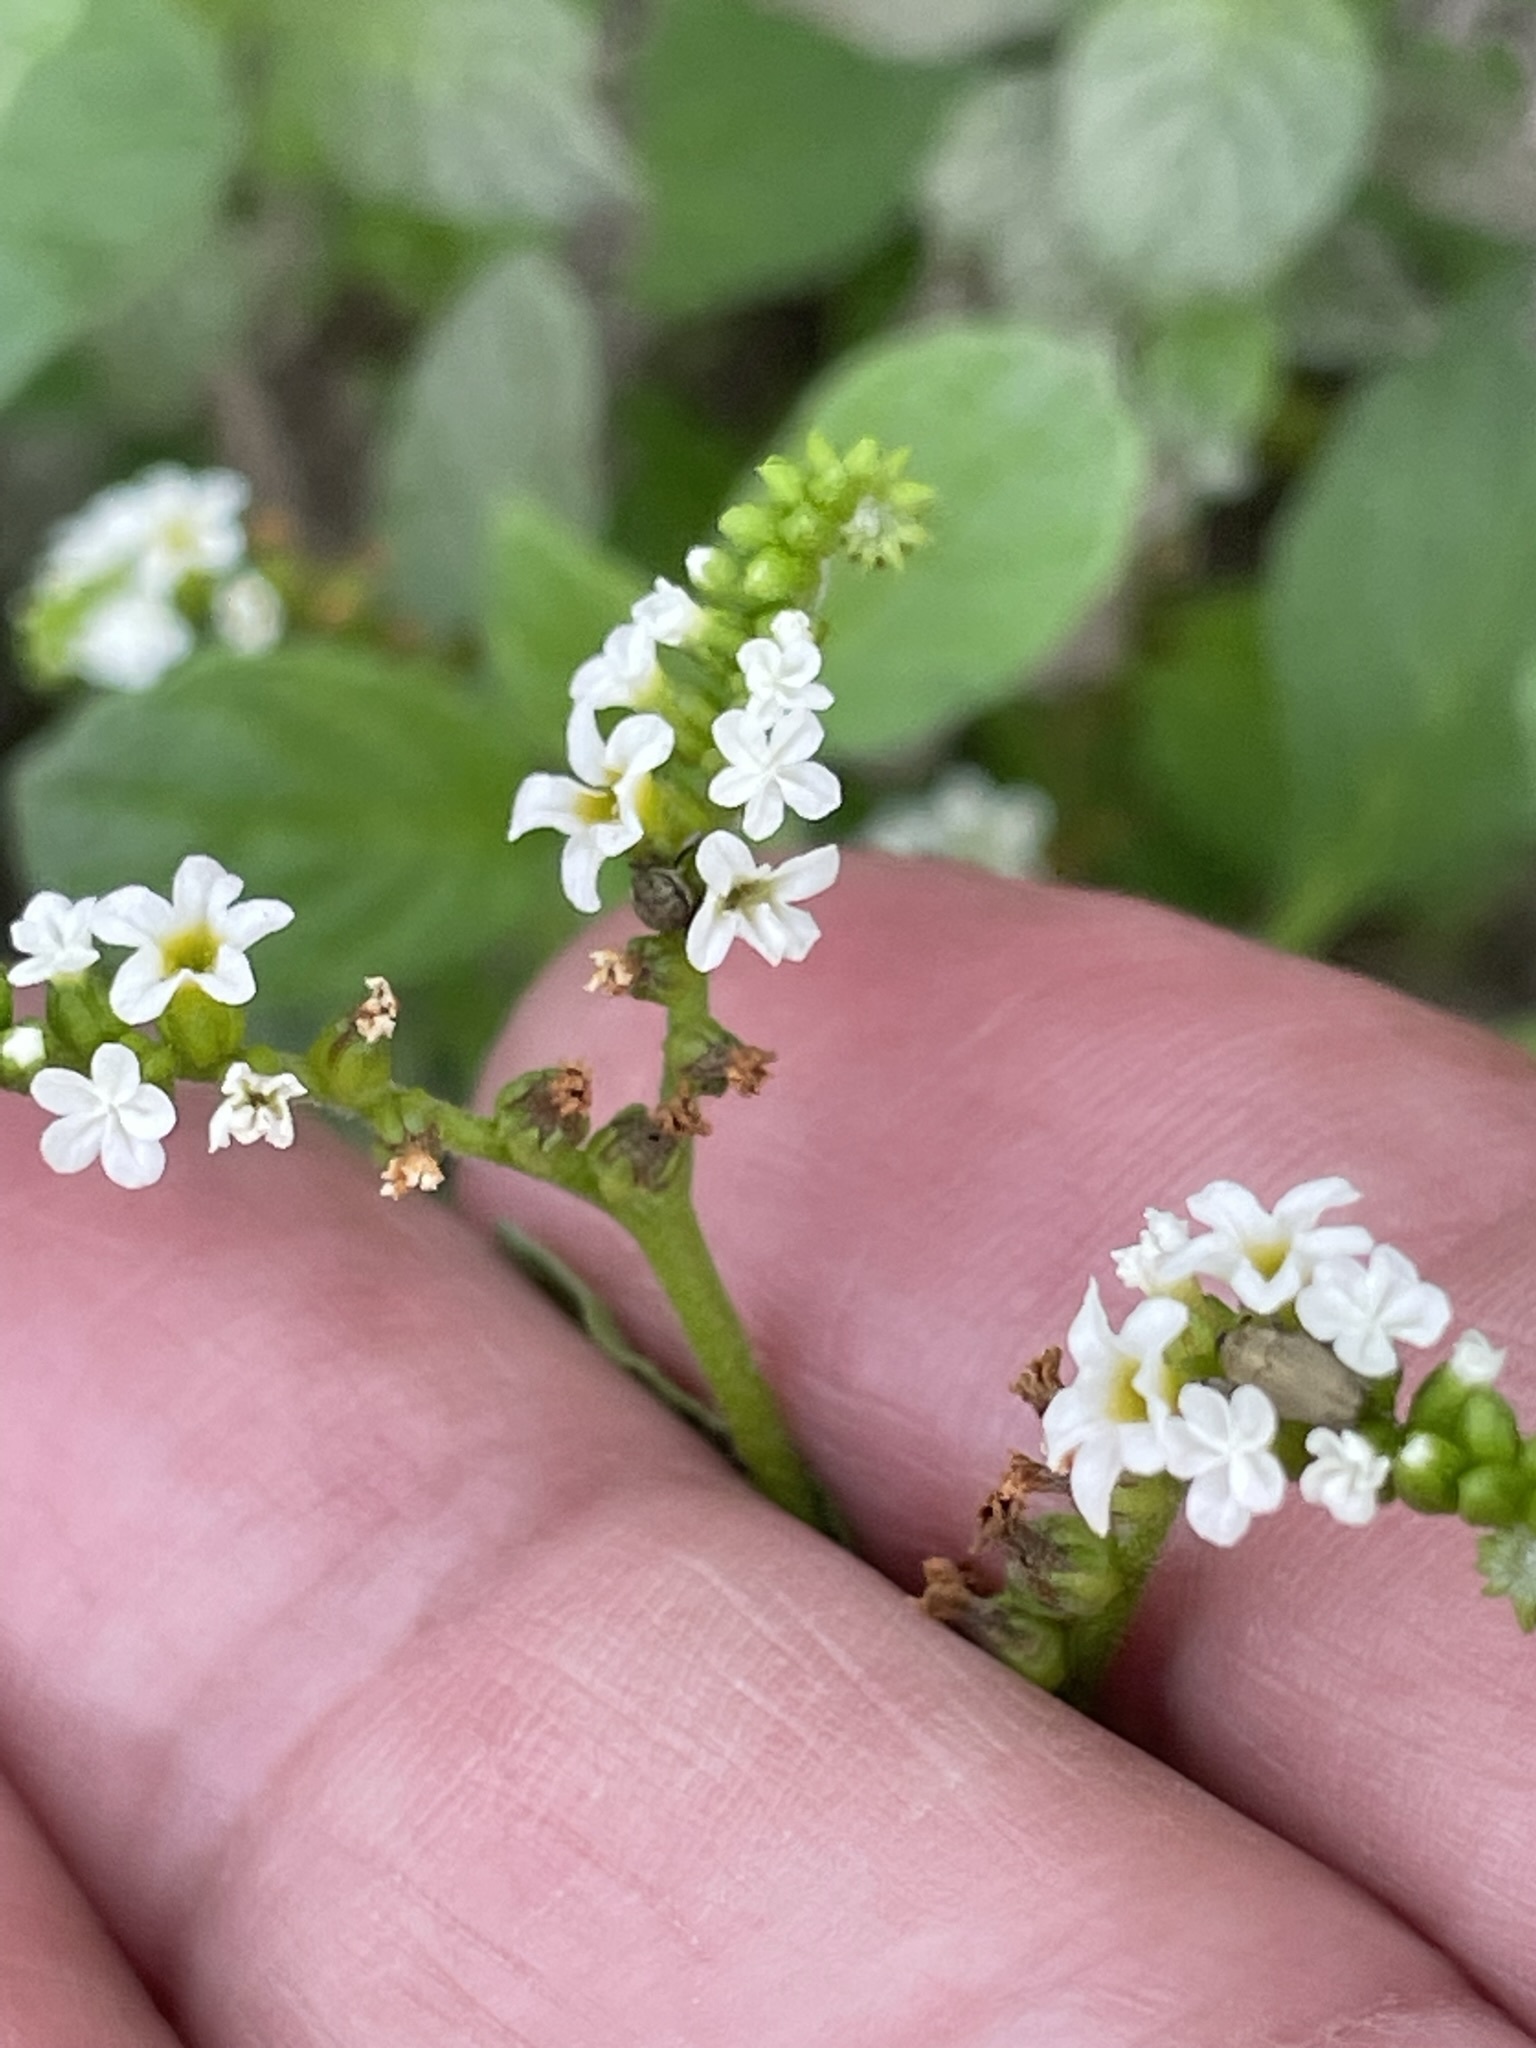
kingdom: Plantae
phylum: Tracheophyta
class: Magnoliopsida
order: Boraginales
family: Heliotropiaceae
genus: Heliotropium
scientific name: Heliotropium angiospermum
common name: Eye bright
